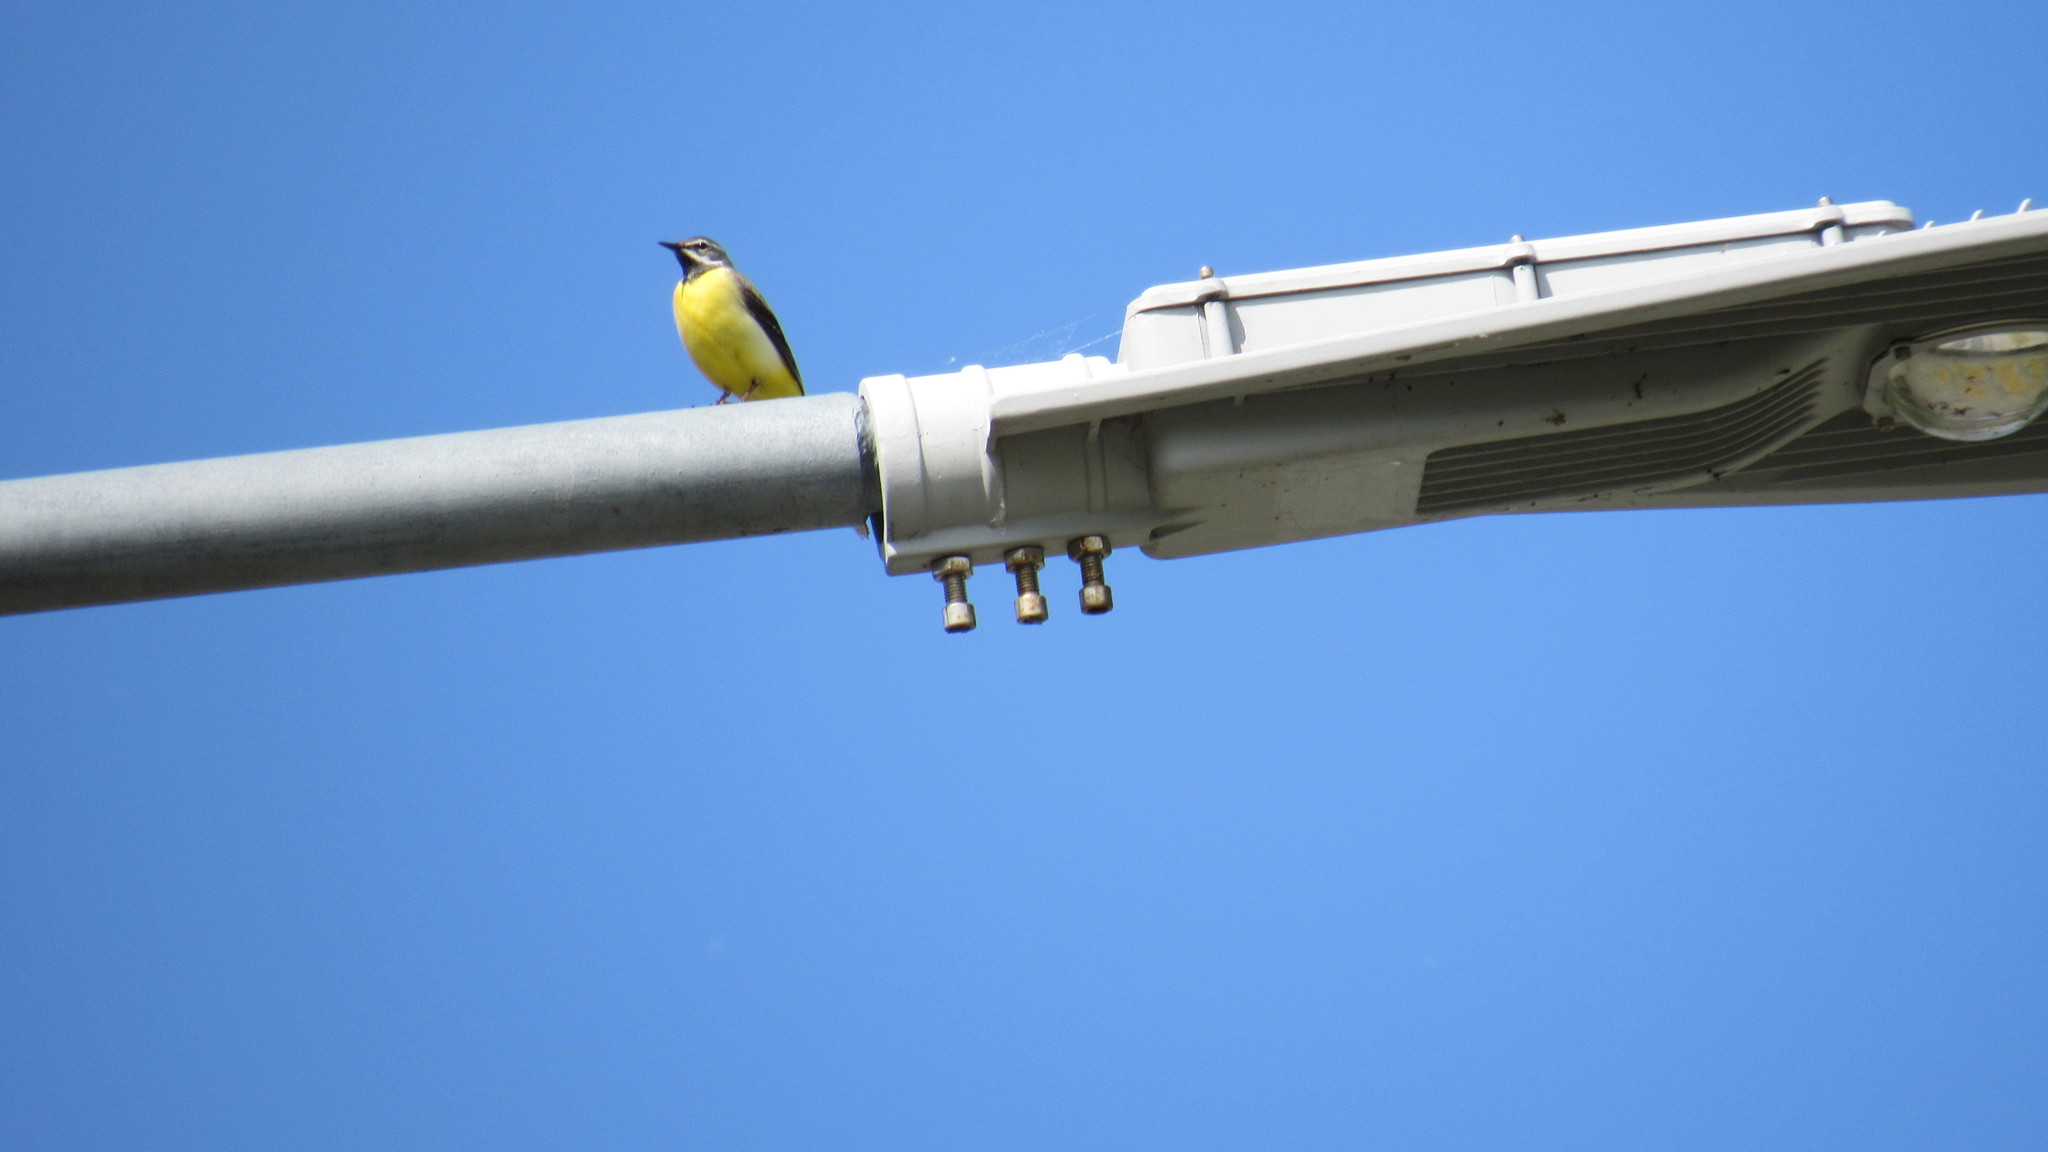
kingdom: Animalia
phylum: Chordata
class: Aves
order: Passeriformes
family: Motacillidae
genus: Motacilla
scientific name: Motacilla cinerea
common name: Grey wagtail
